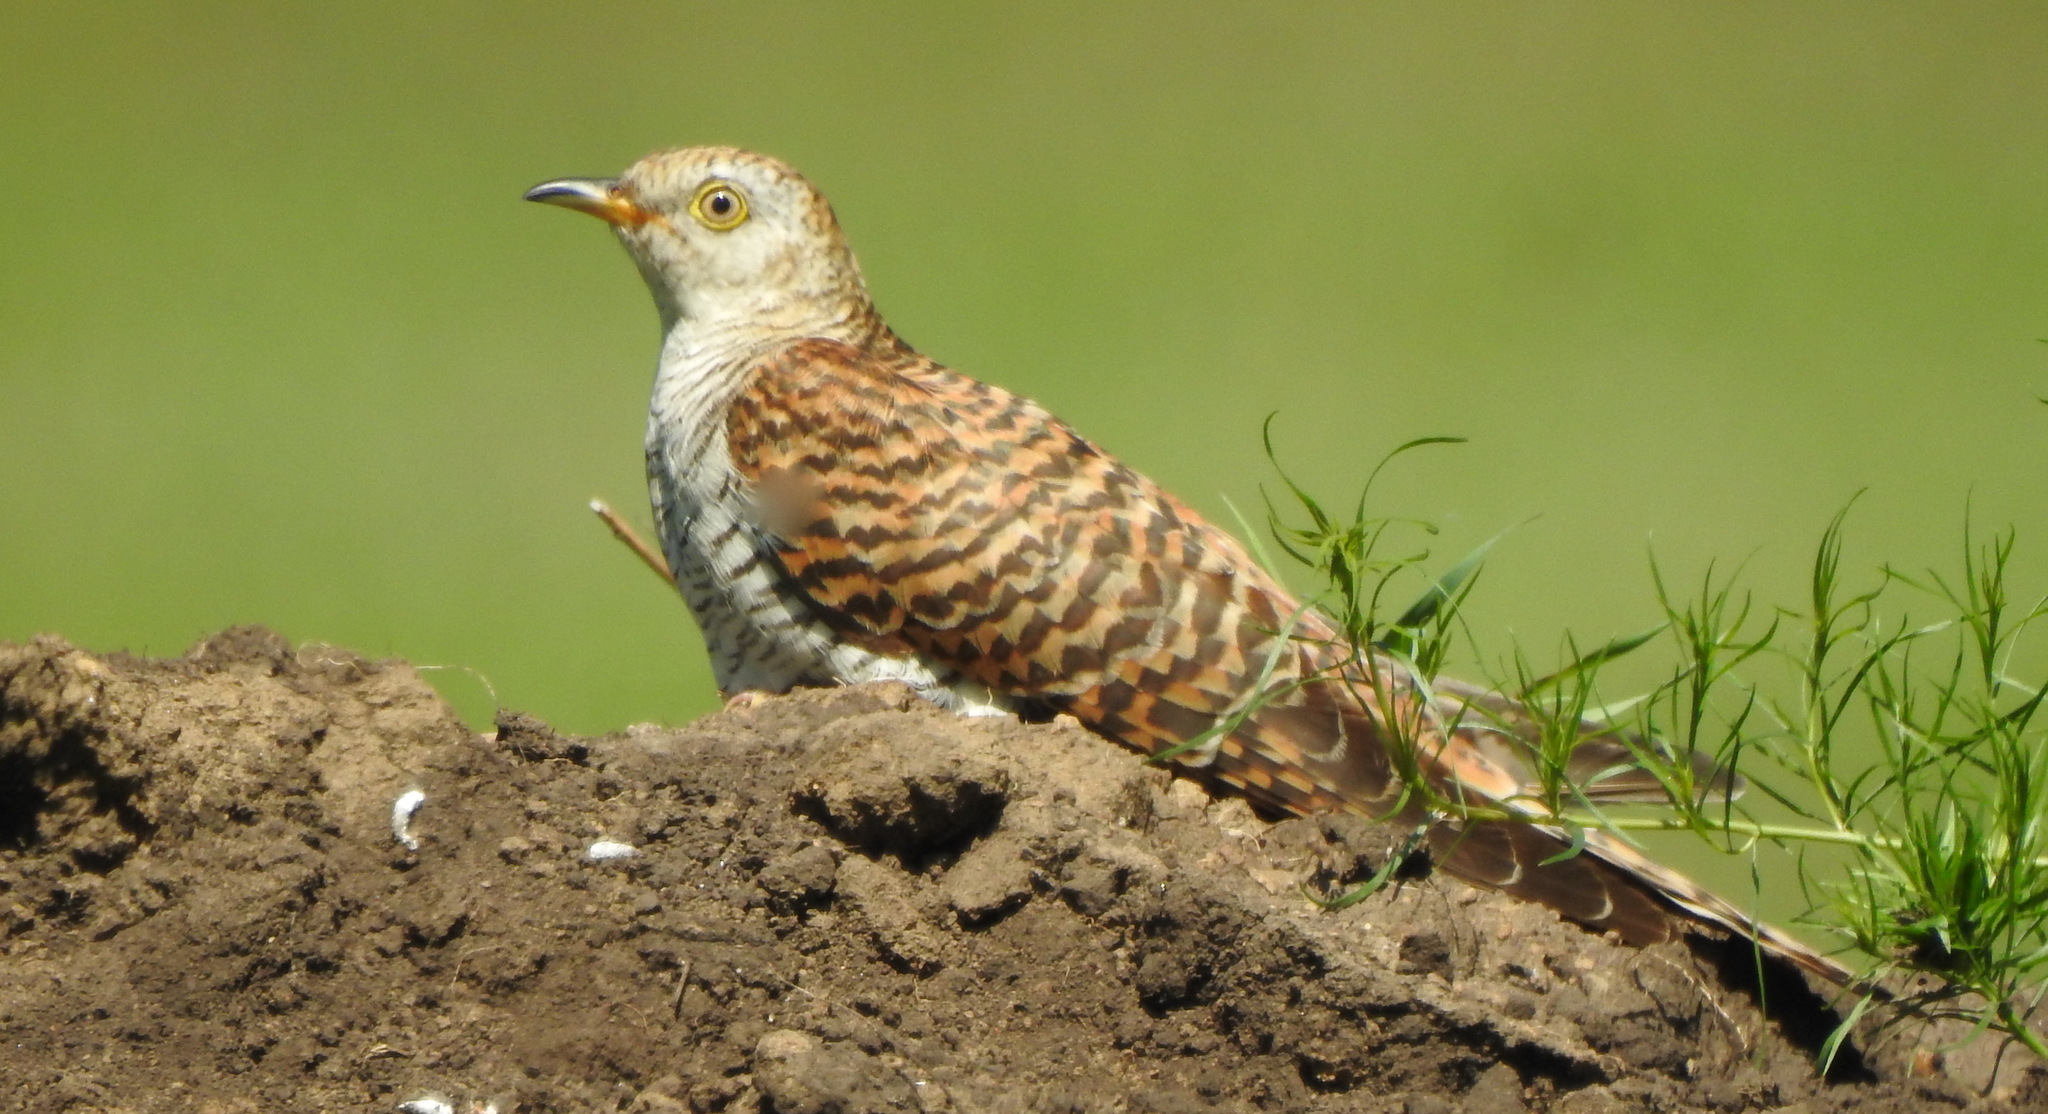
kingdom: Animalia
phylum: Chordata
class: Aves
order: Cuculiformes
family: Cuculidae
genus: Cuculus
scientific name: Cuculus canorus
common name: Common cuckoo
